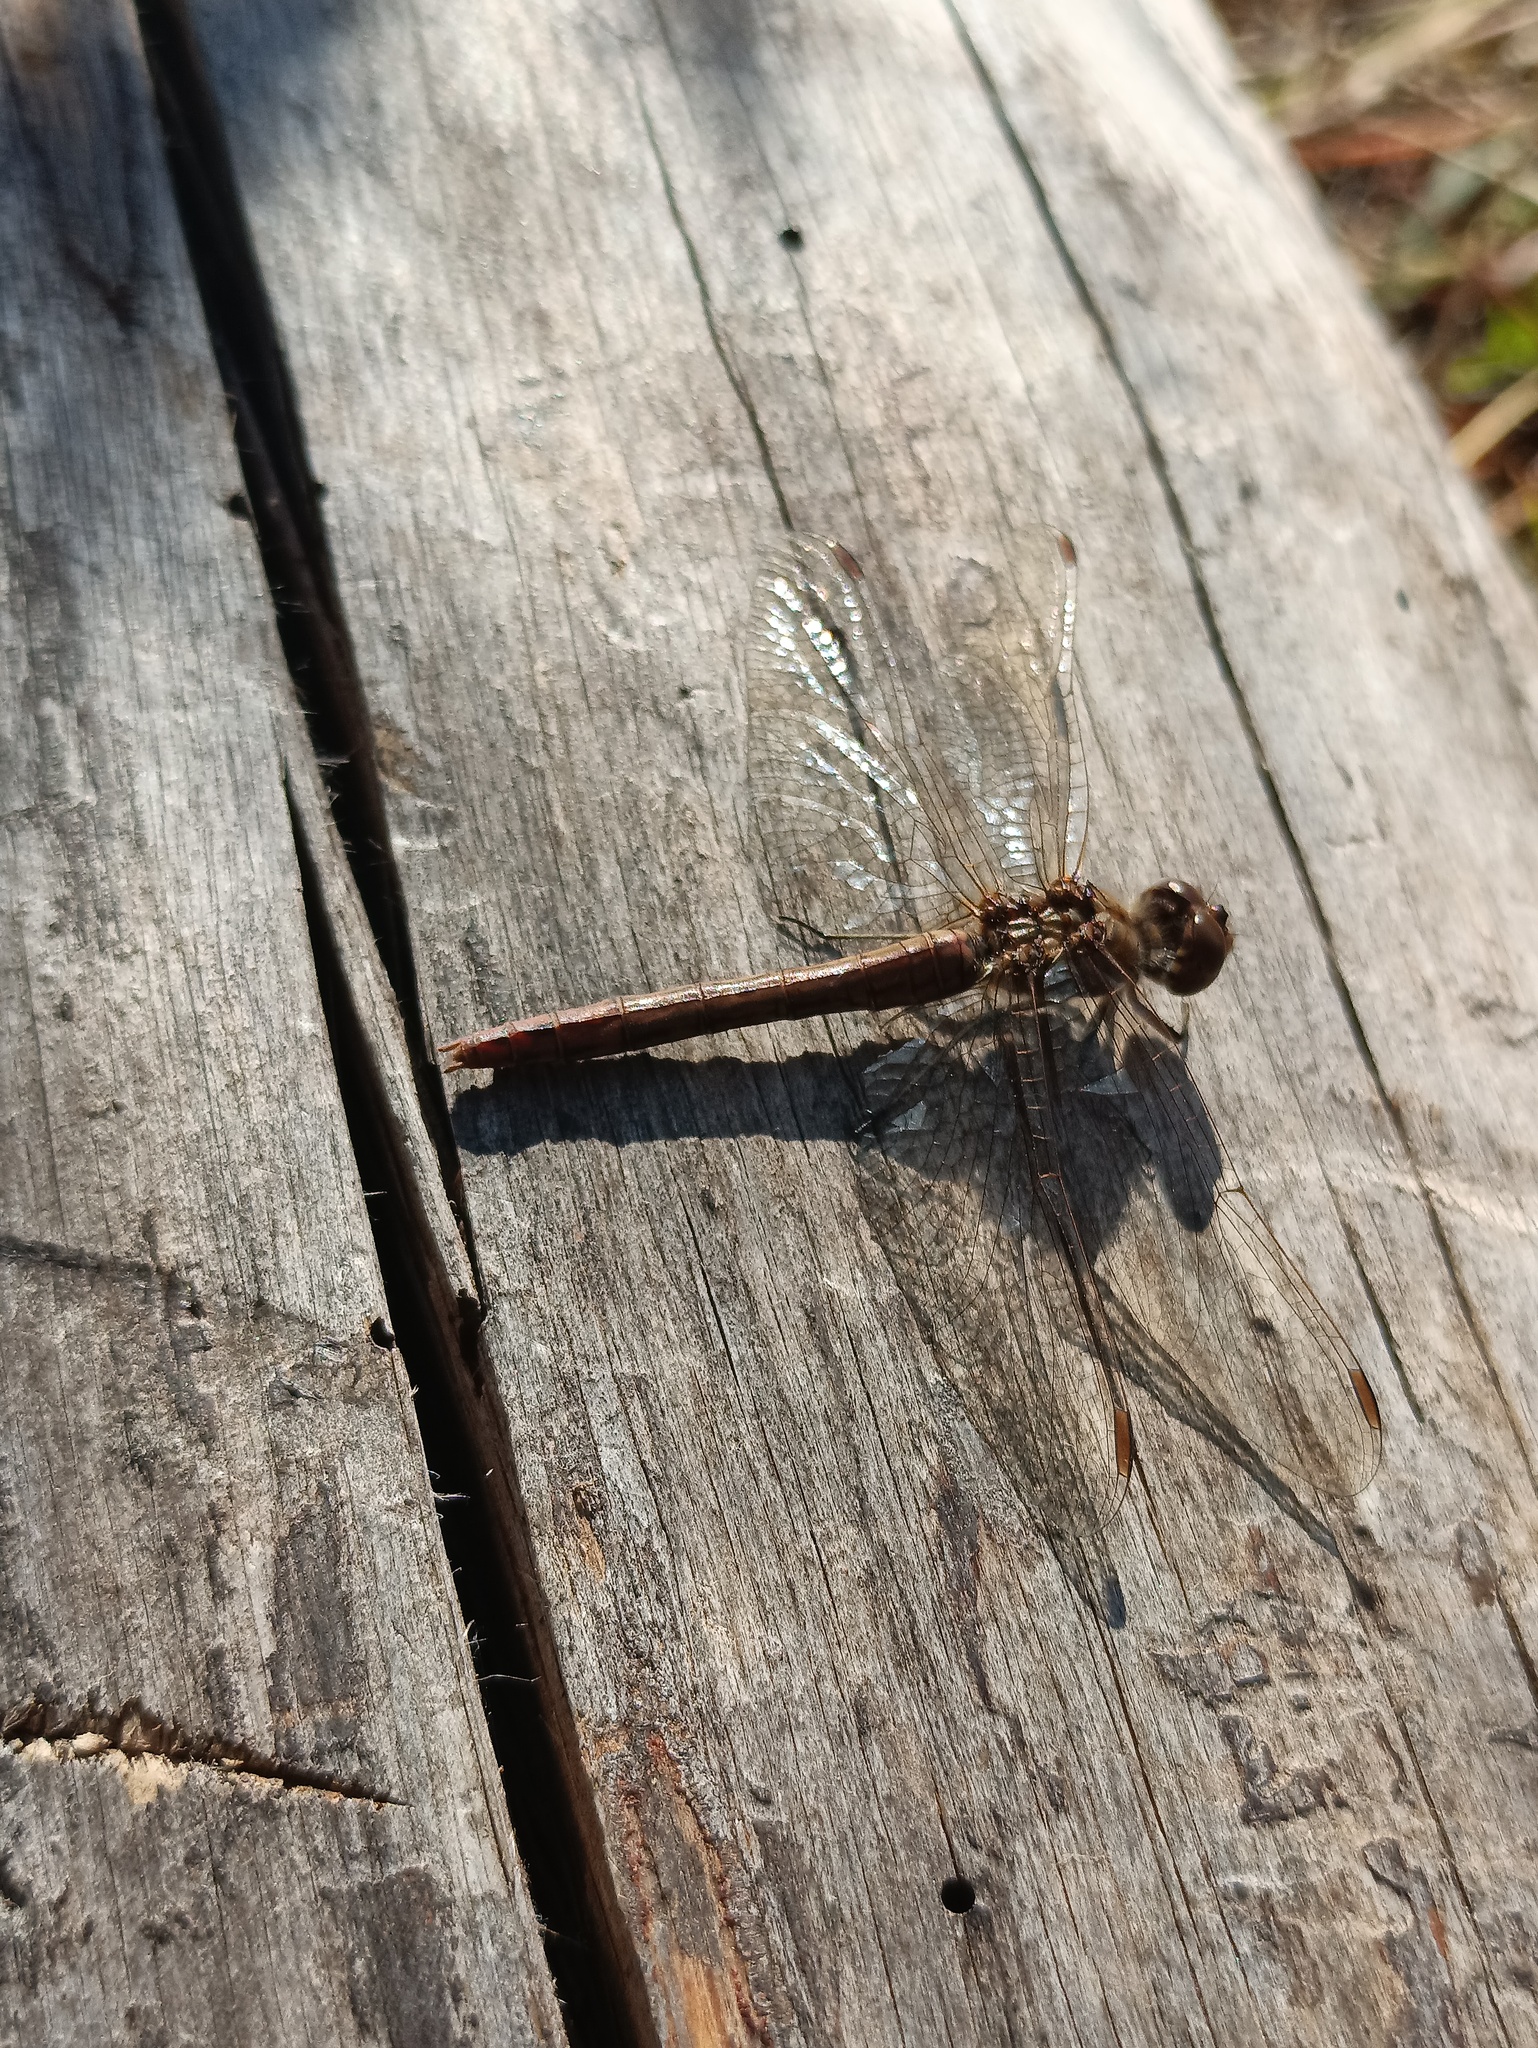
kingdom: Animalia
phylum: Arthropoda
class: Insecta
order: Odonata
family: Libellulidae
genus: Sympetrum
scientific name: Sympetrum vulgatum
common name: Vagrant darter
